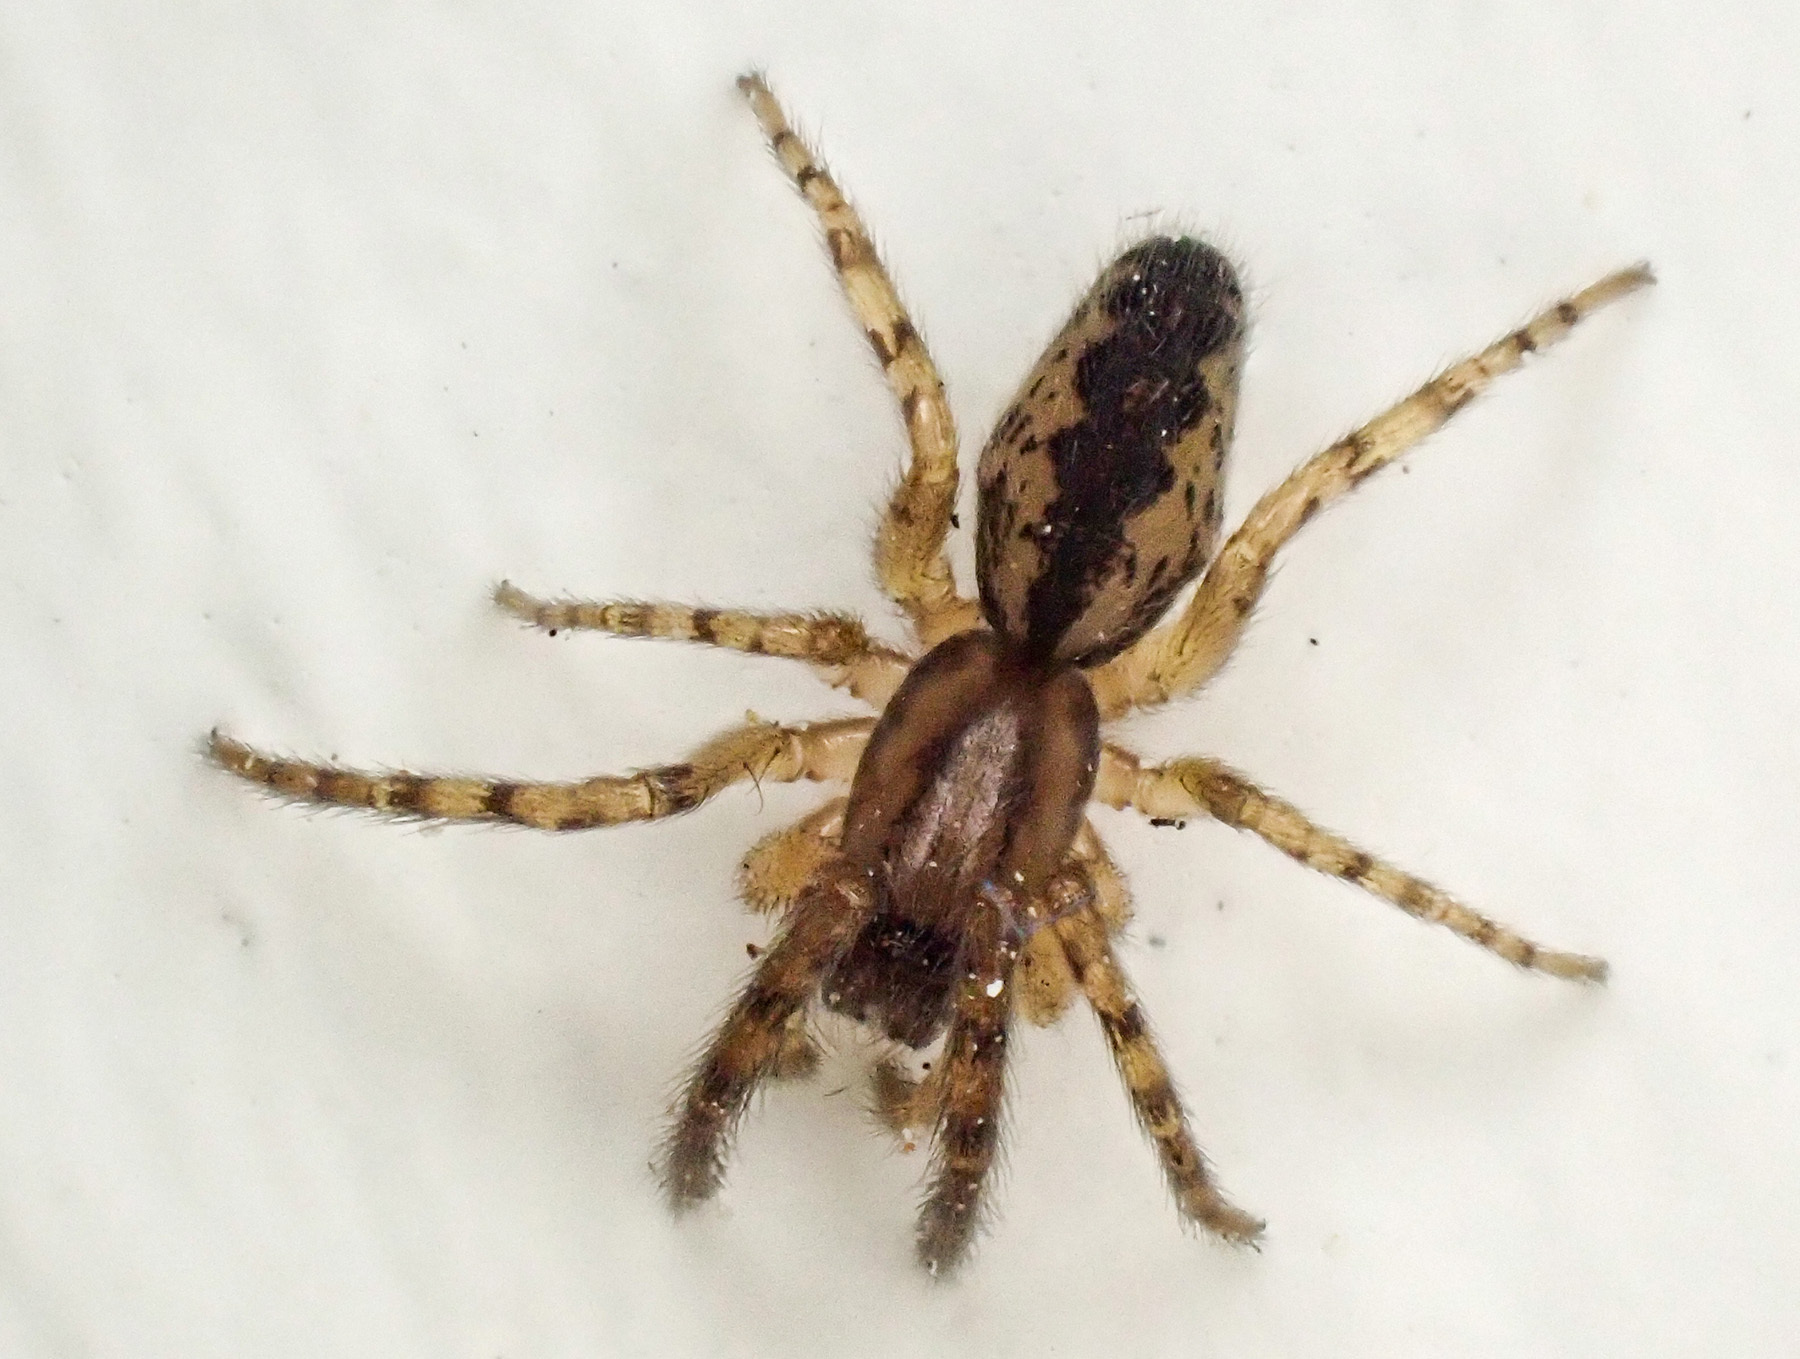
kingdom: Animalia
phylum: Arthropoda
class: Arachnida
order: Araneae
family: Segestriidae
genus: Segestria
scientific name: Segestria senoculata
